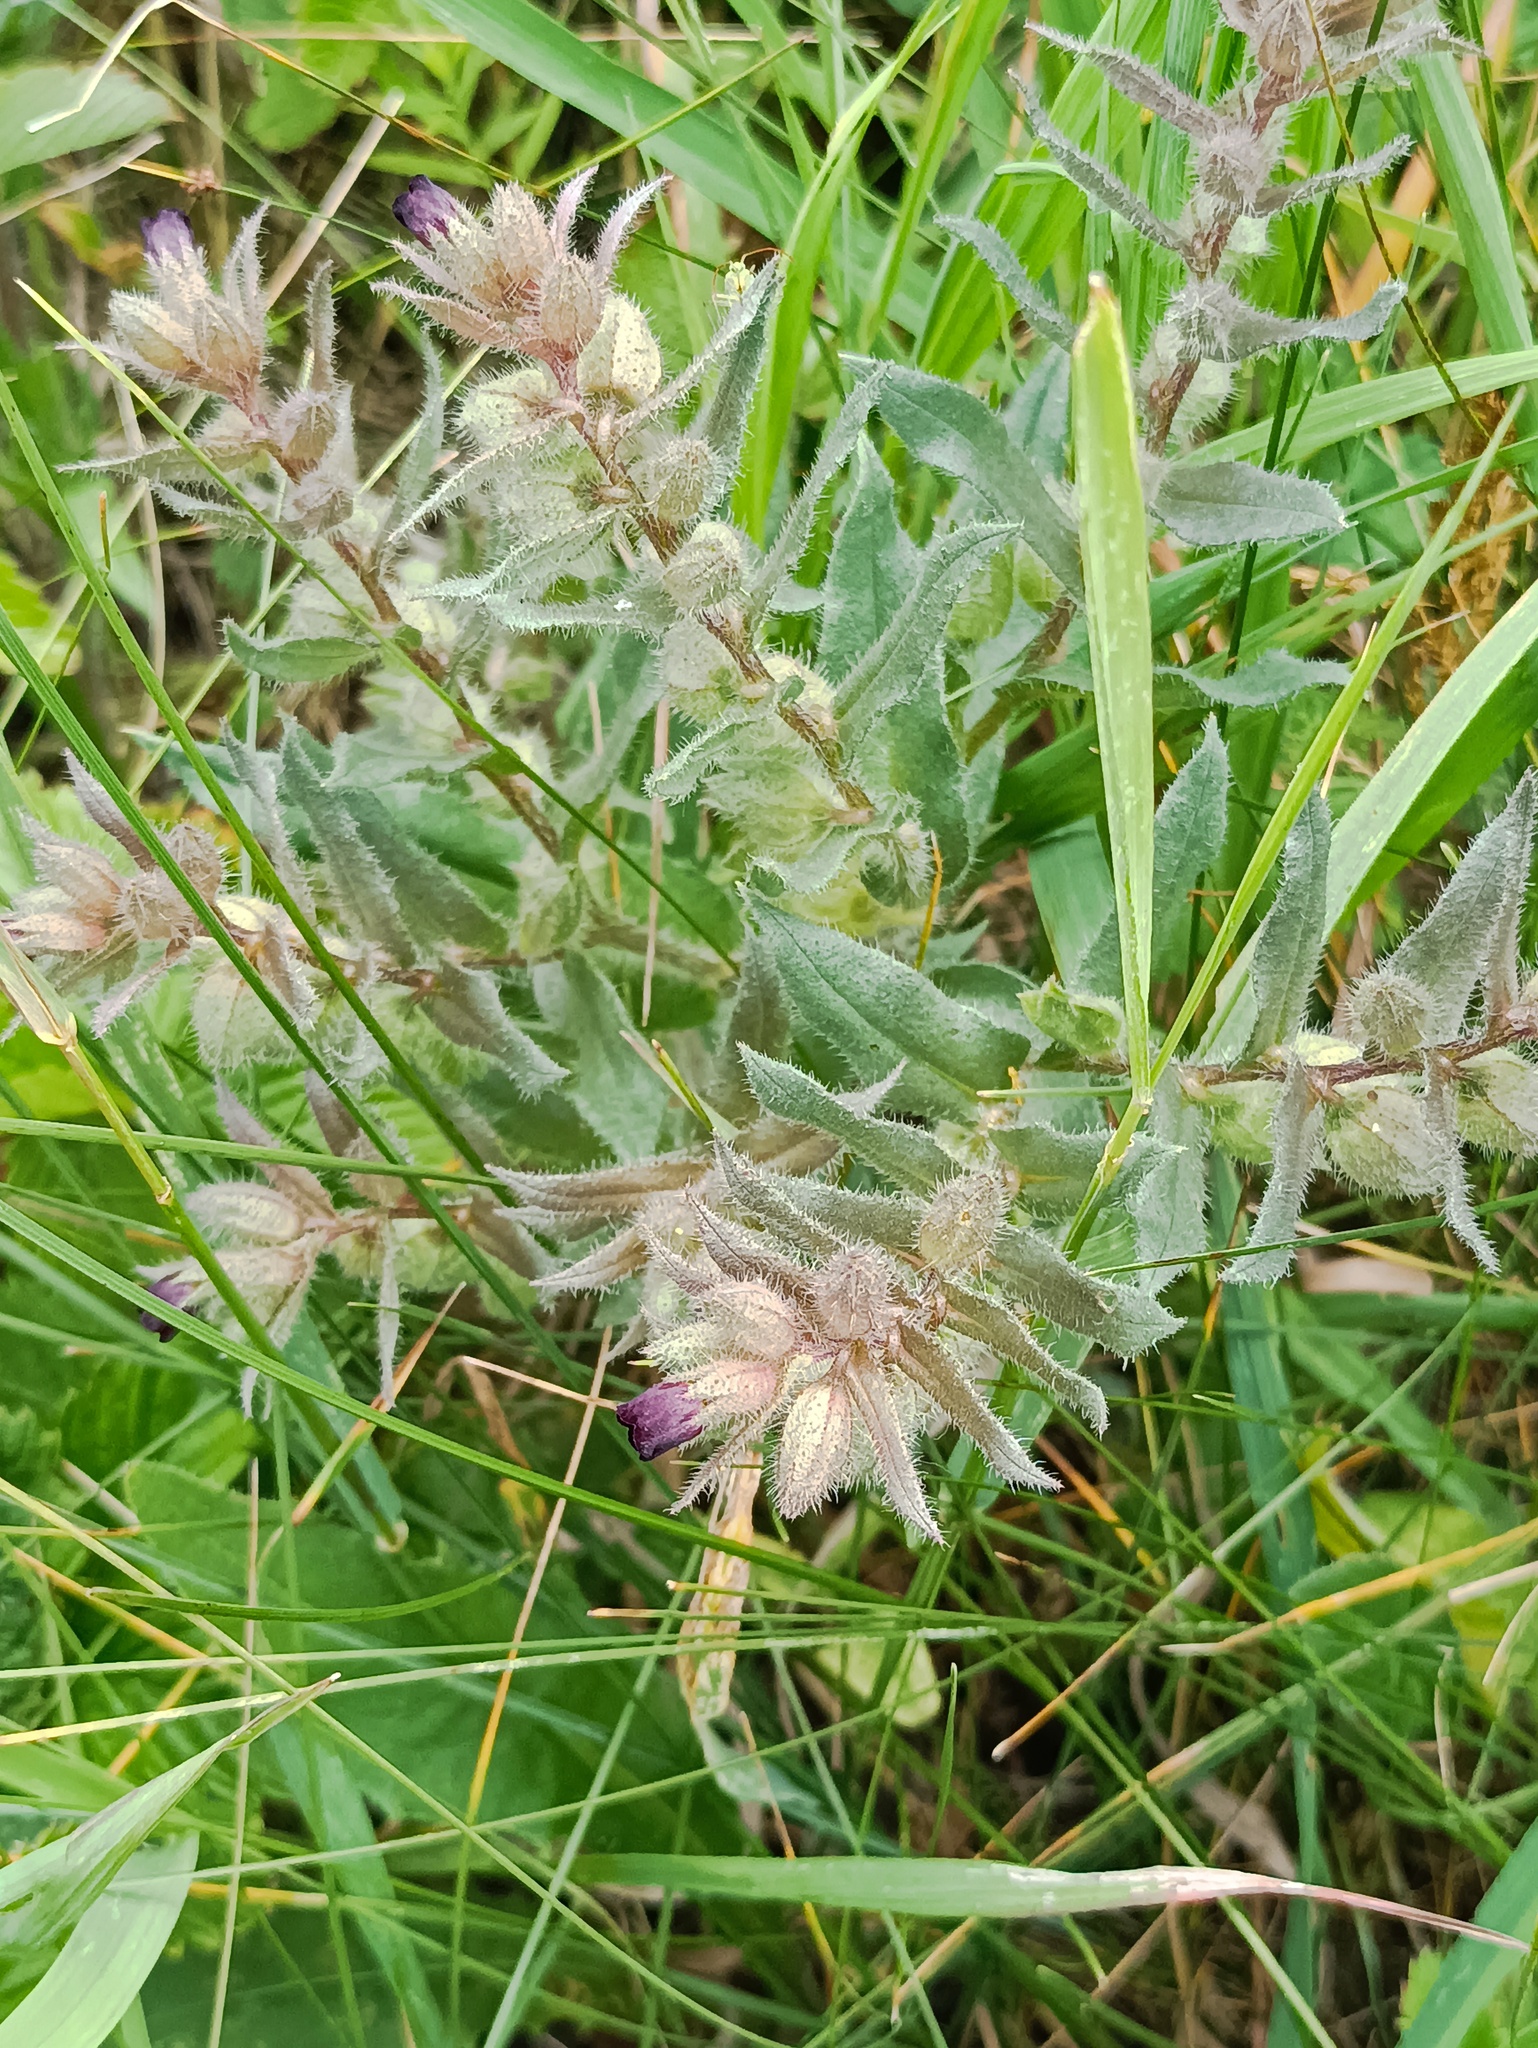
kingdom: Plantae
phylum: Tracheophyta
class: Magnoliopsida
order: Boraginales
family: Boraginaceae
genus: Nonea
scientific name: Nonea pulla
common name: Brown nonea
